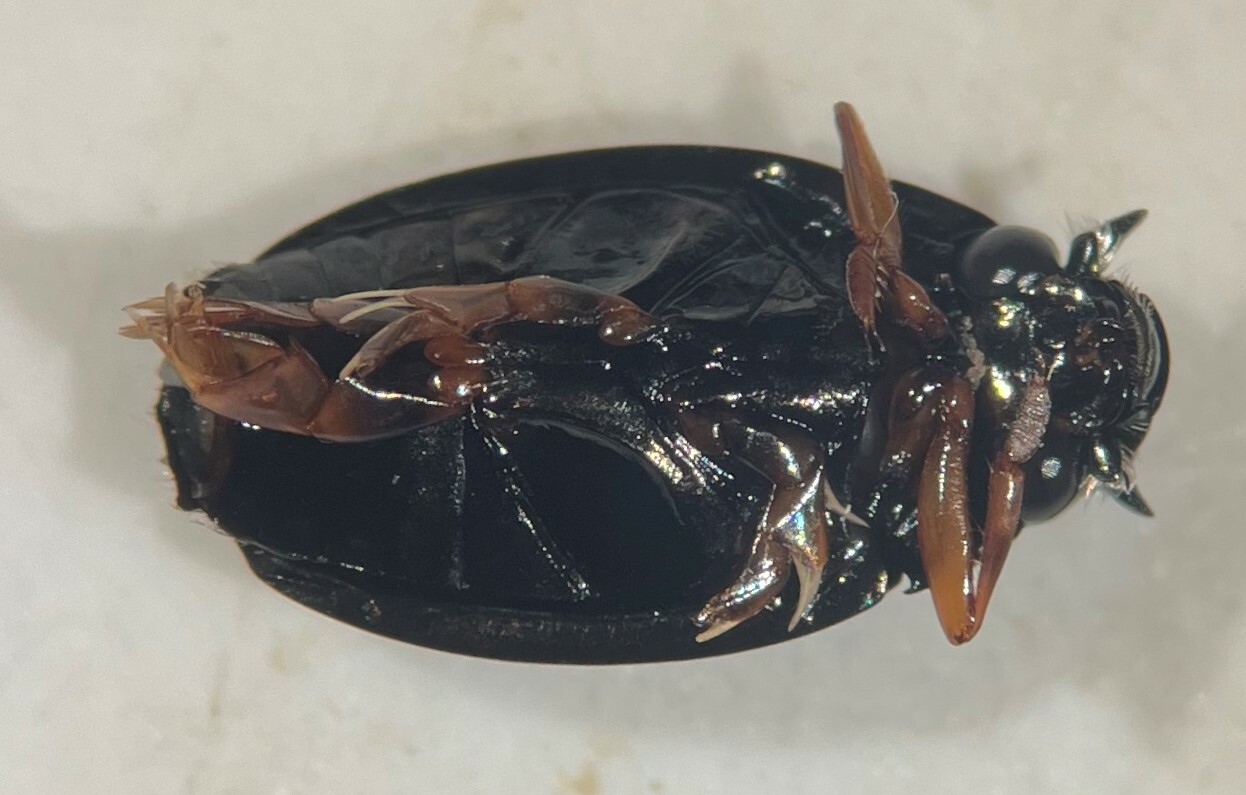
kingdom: Animalia
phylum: Arthropoda
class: Insecta
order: Coleoptera
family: Gyrinidae
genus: Gyrinus
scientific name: Gyrinus gibber
